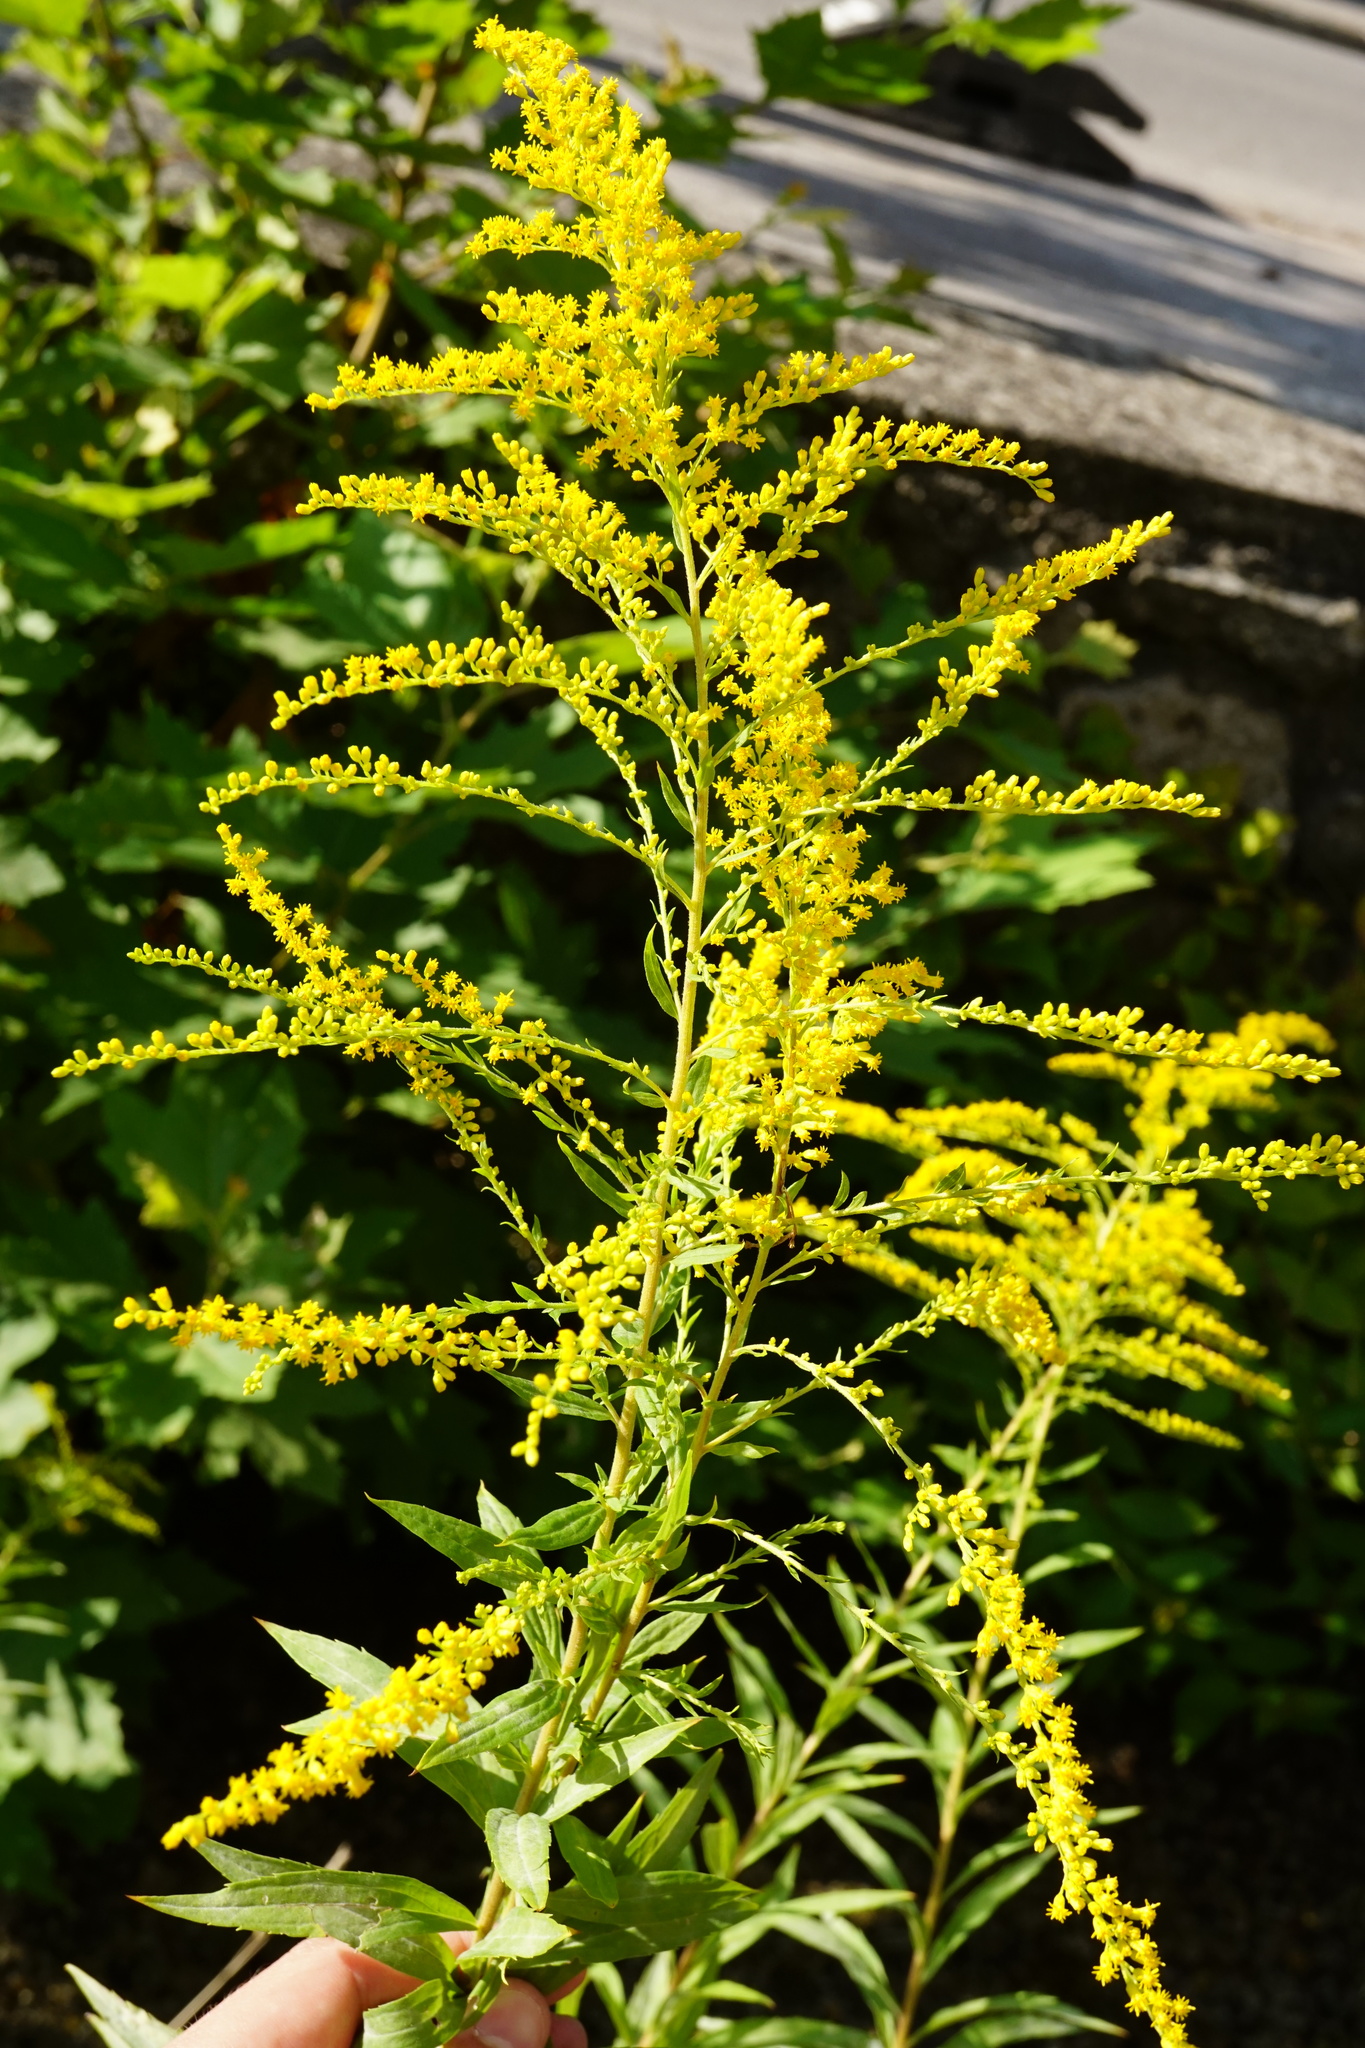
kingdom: Plantae
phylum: Tracheophyta
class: Magnoliopsida
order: Asterales
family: Asteraceae
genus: Solidago
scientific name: Solidago canadensis
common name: Canada goldenrod
